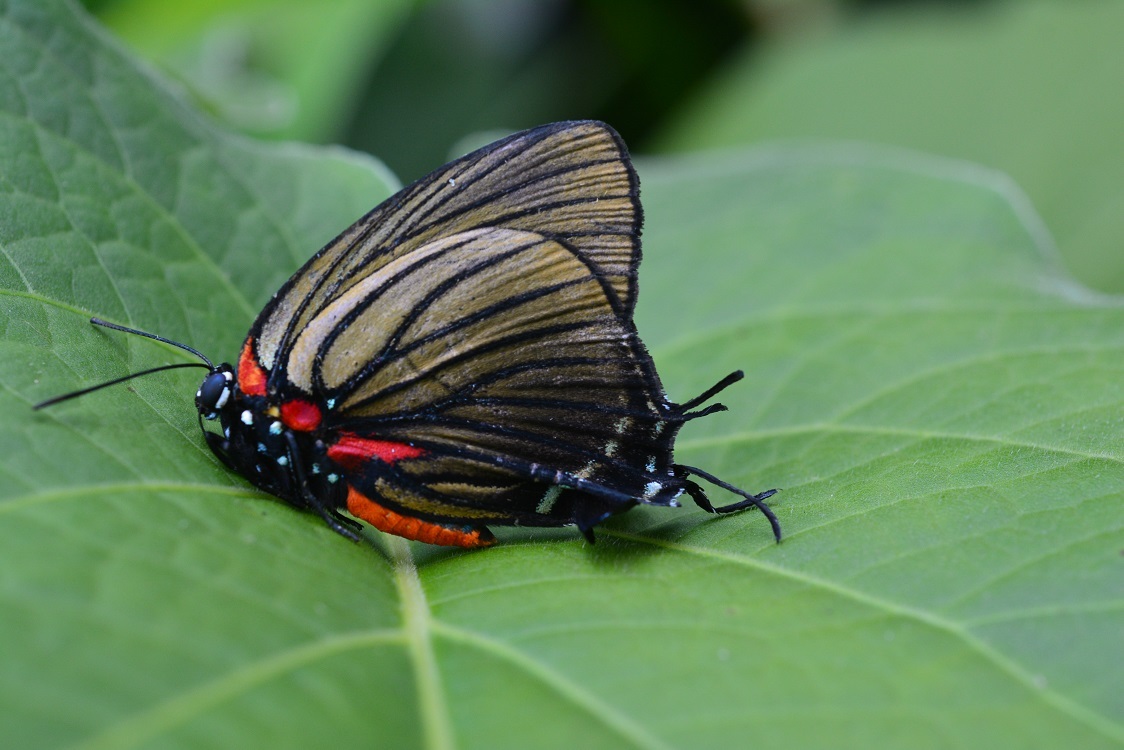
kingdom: Animalia
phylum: Arthropoda
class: Insecta
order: Lepidoptera
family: Lycaenidae
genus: Thecla
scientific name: Thecla polybe
